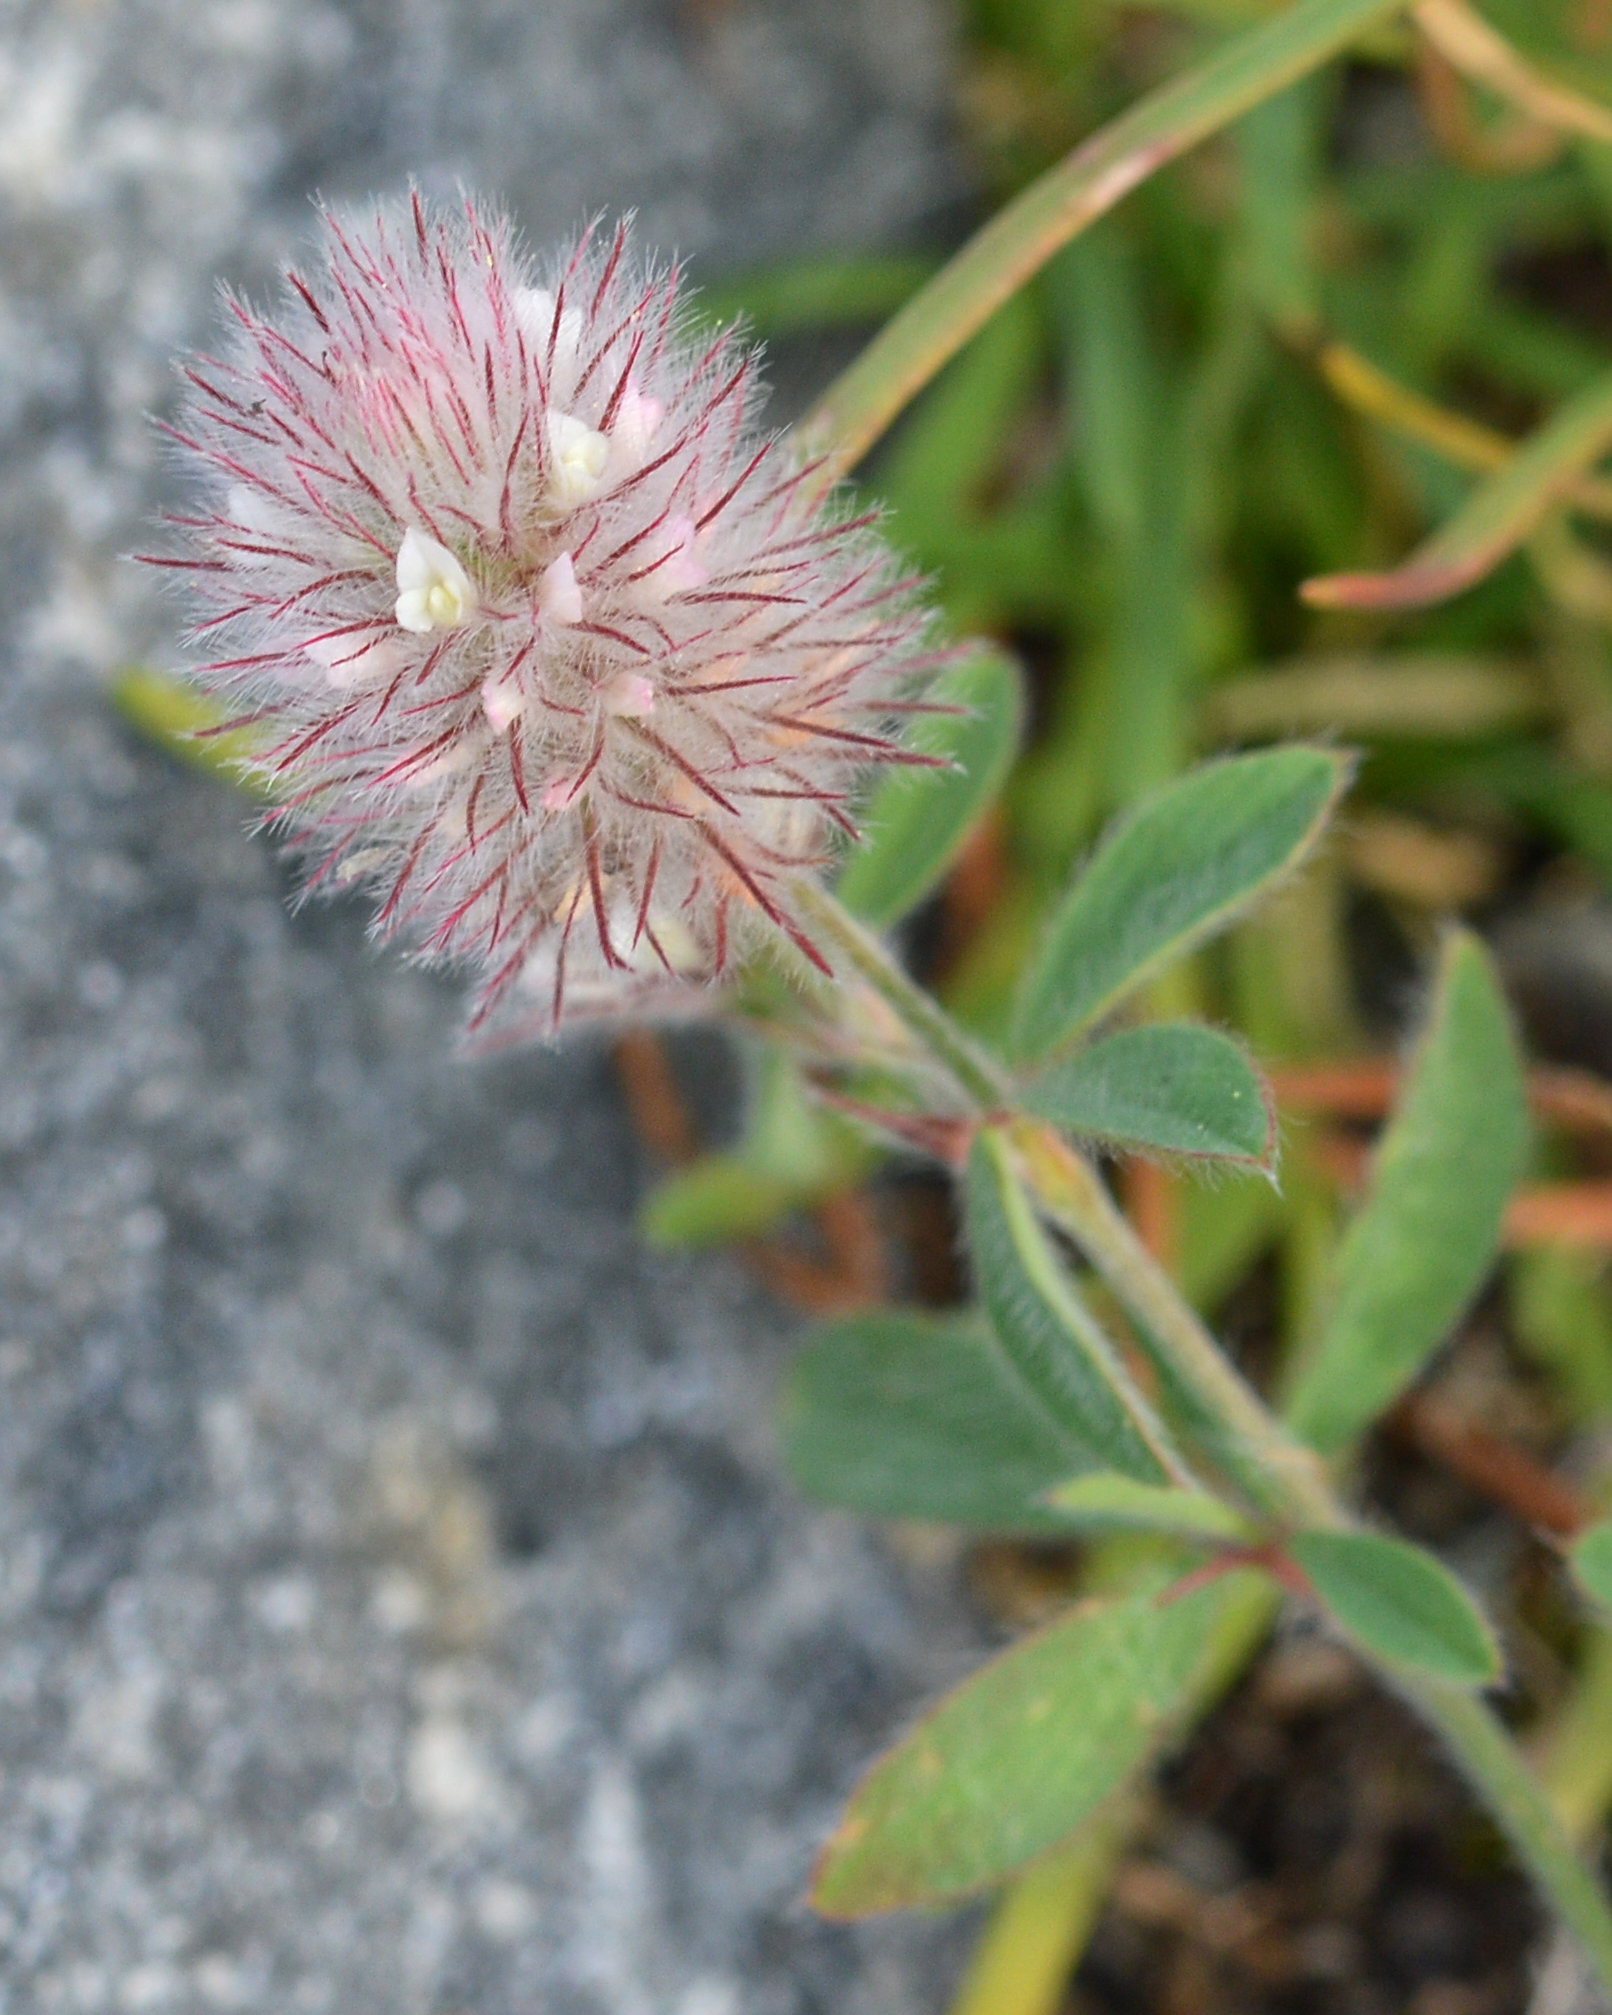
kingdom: Plantae
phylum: Tracheophyta
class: Magnoliopsida
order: Fabales
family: Fabaceae
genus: Trifolium
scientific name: Trifolium arvense
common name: Hare's-foot clover
